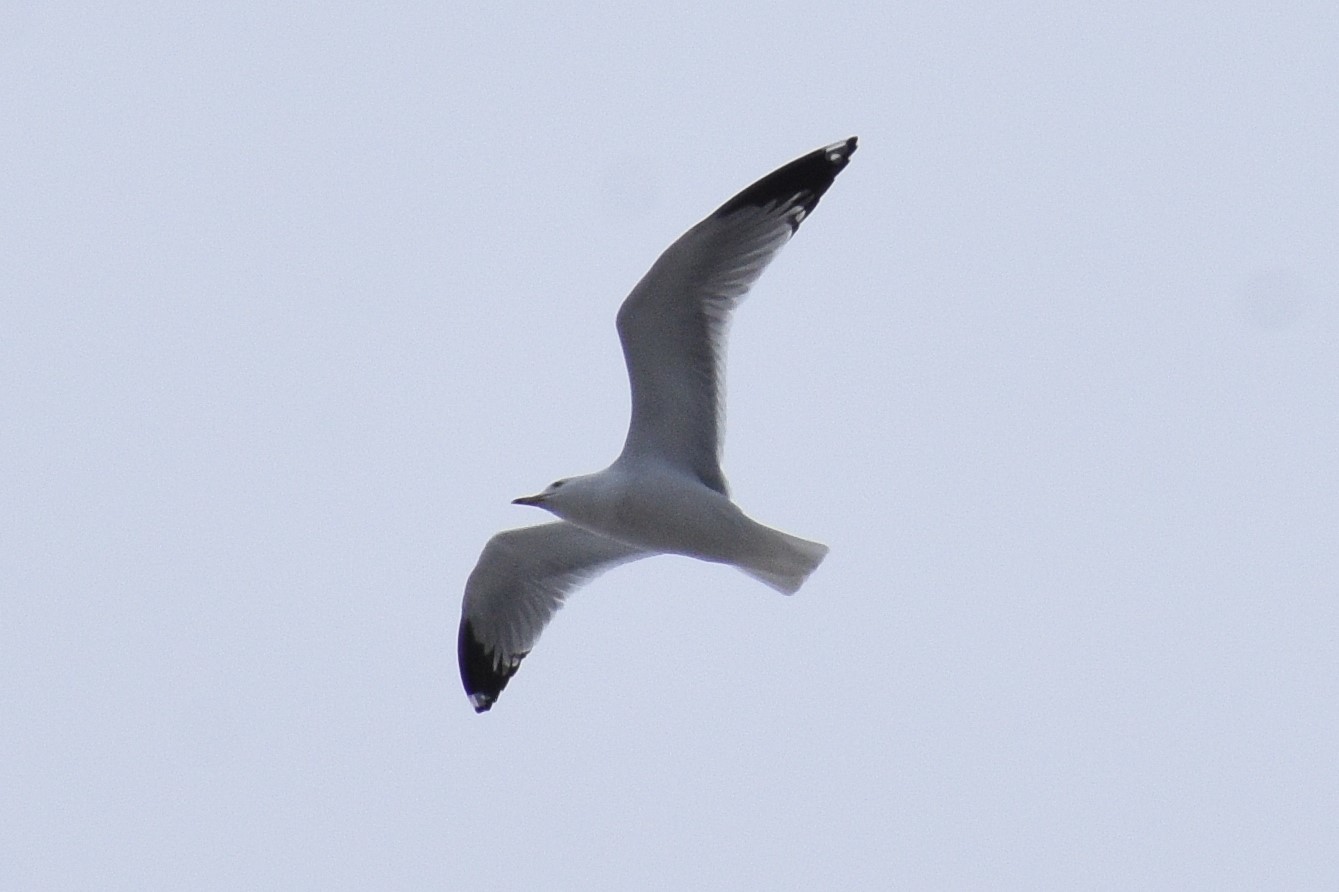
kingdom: Animalia
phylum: Chordata
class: Aves
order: Charadriiformes
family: Laridae
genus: Larus
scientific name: Larus delawarensis
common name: Ring-billed gull
